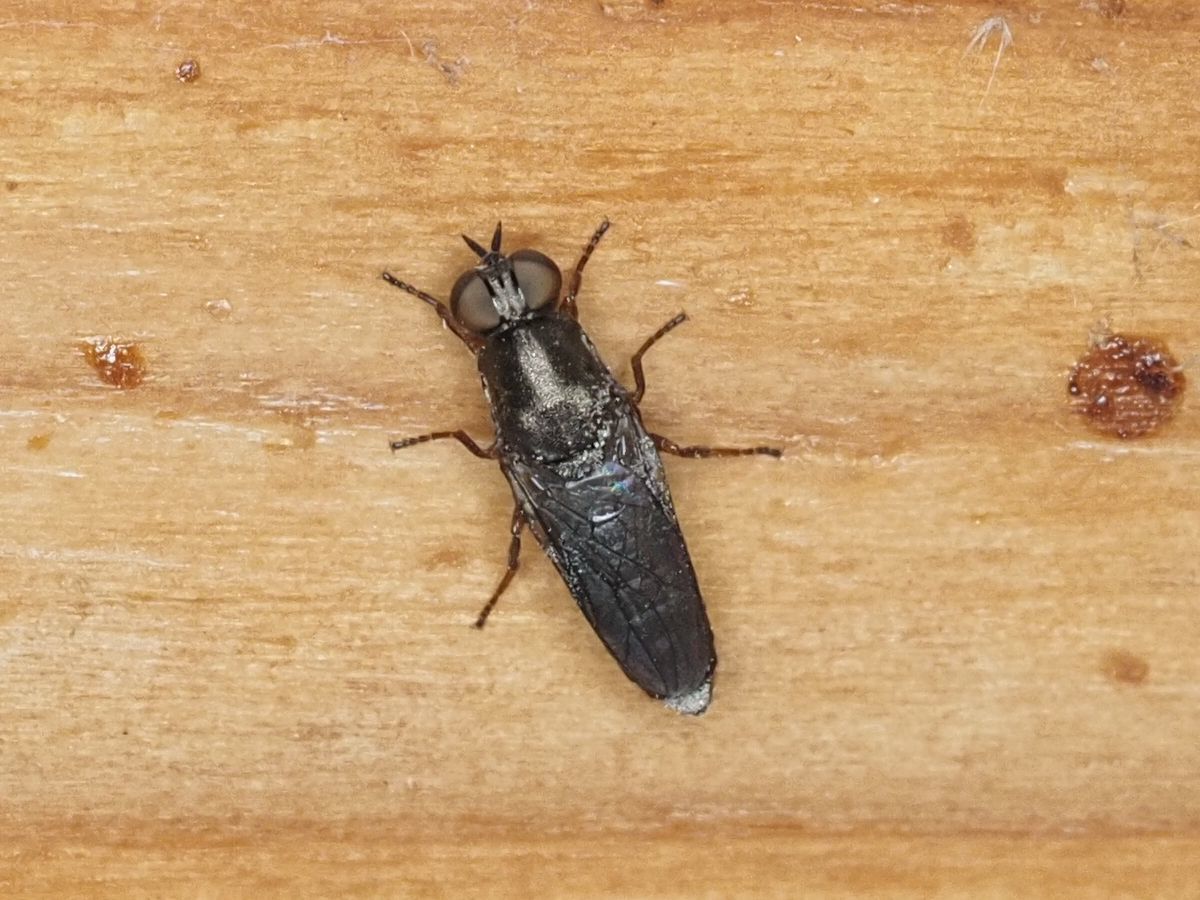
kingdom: Animalia
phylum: Arthropoda
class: Insecta
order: Diptera
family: Scenopinidae
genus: Scenopinus
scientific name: Scenopinus fenestralis
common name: House windowfly
